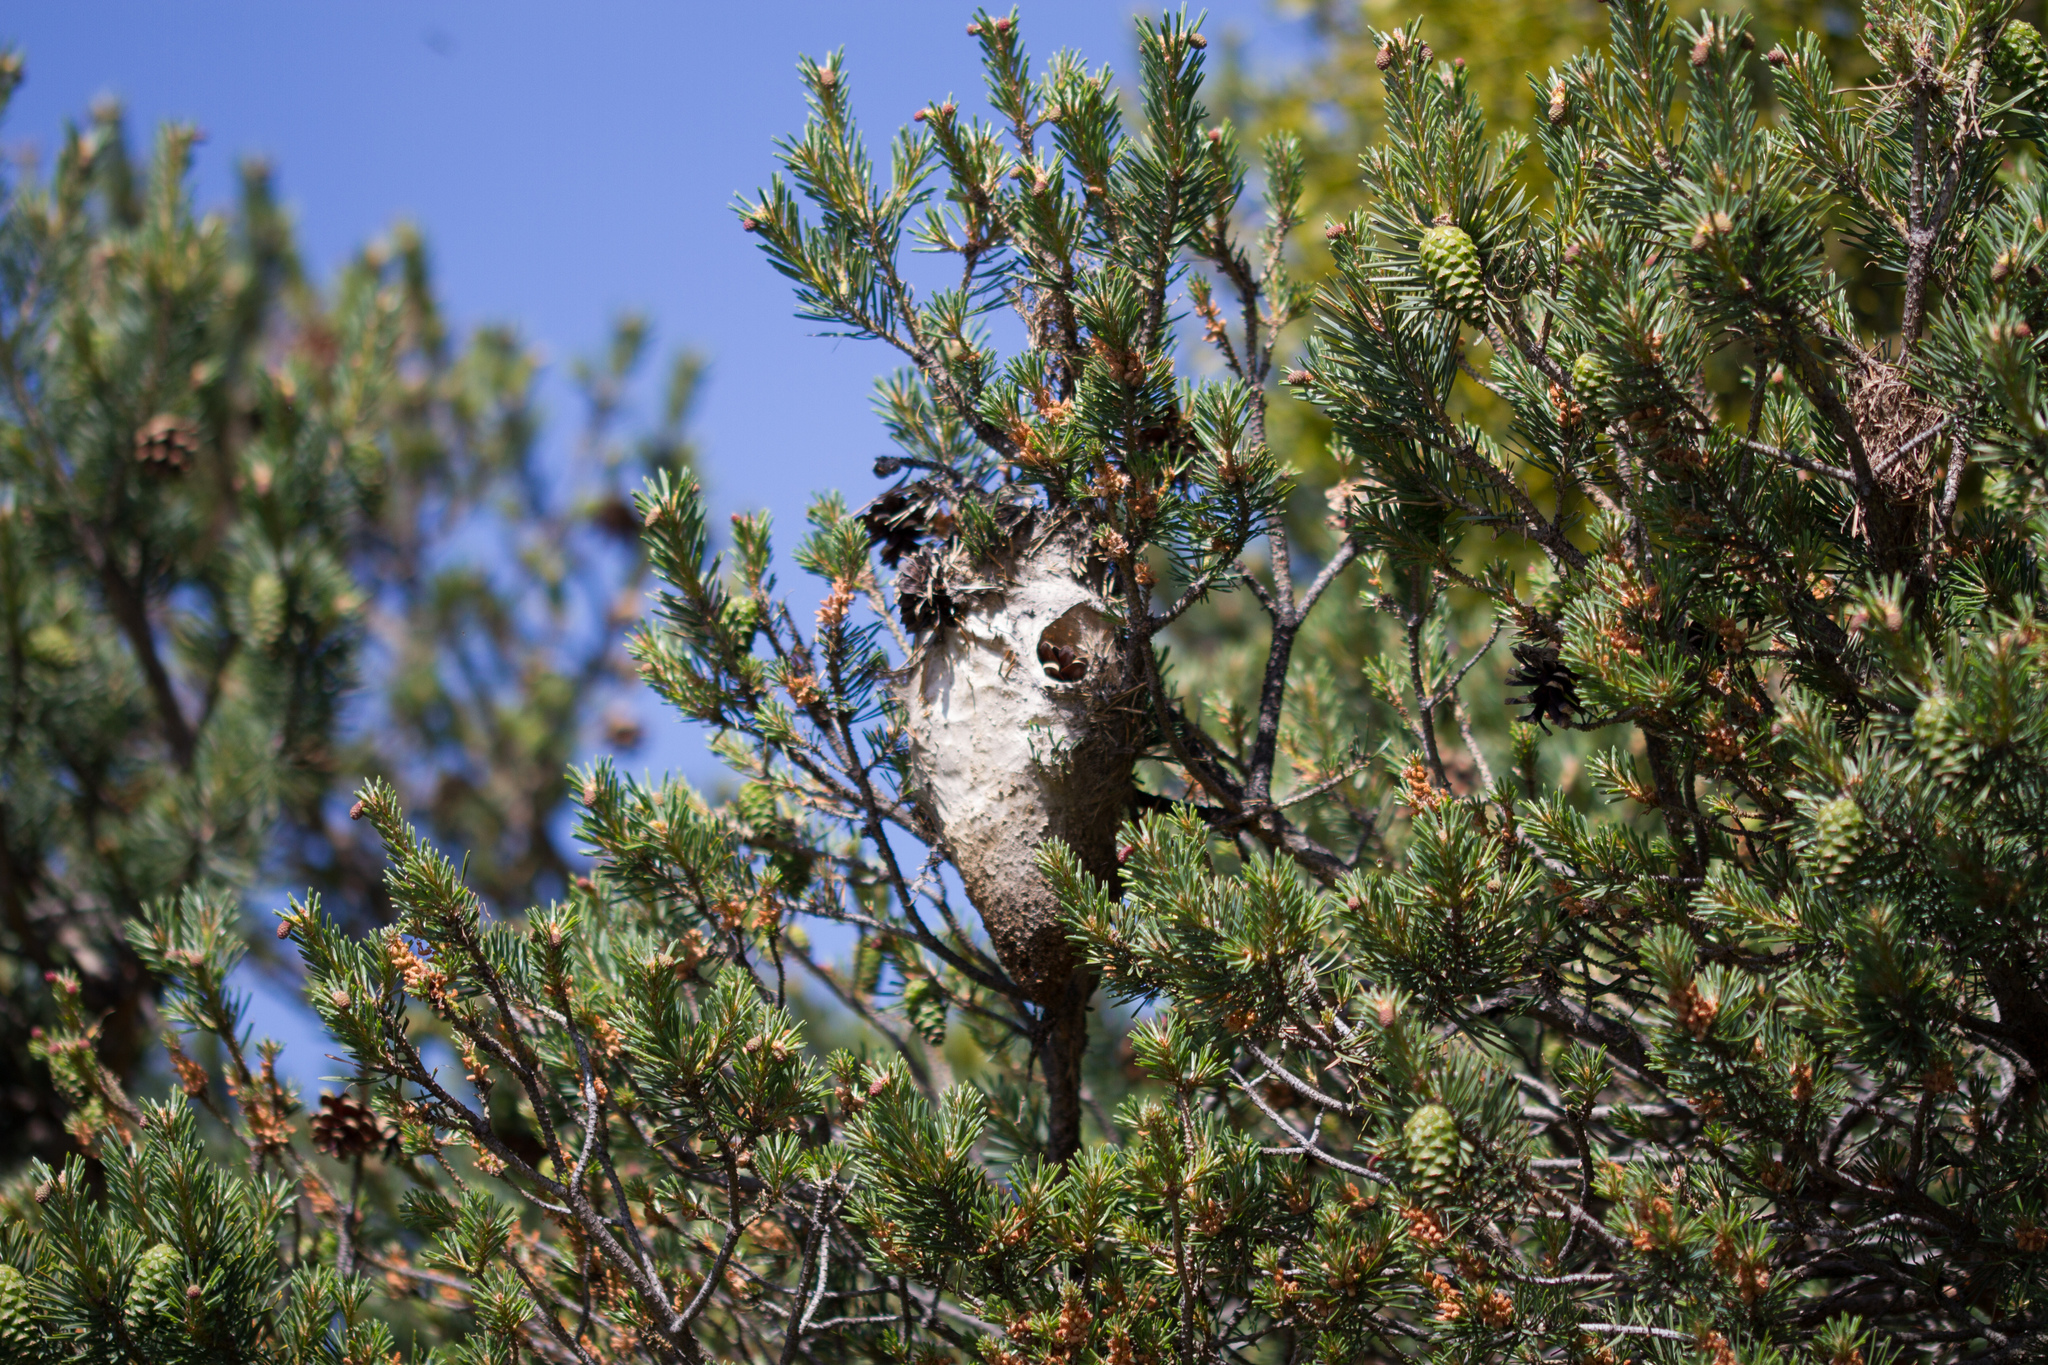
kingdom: Animalia
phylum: Arthropoda
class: Insecta
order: Lepidoptera
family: Notodontidae
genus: Thaumetopoea
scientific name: Thaumetopoea pityocampa
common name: Pine processionary
